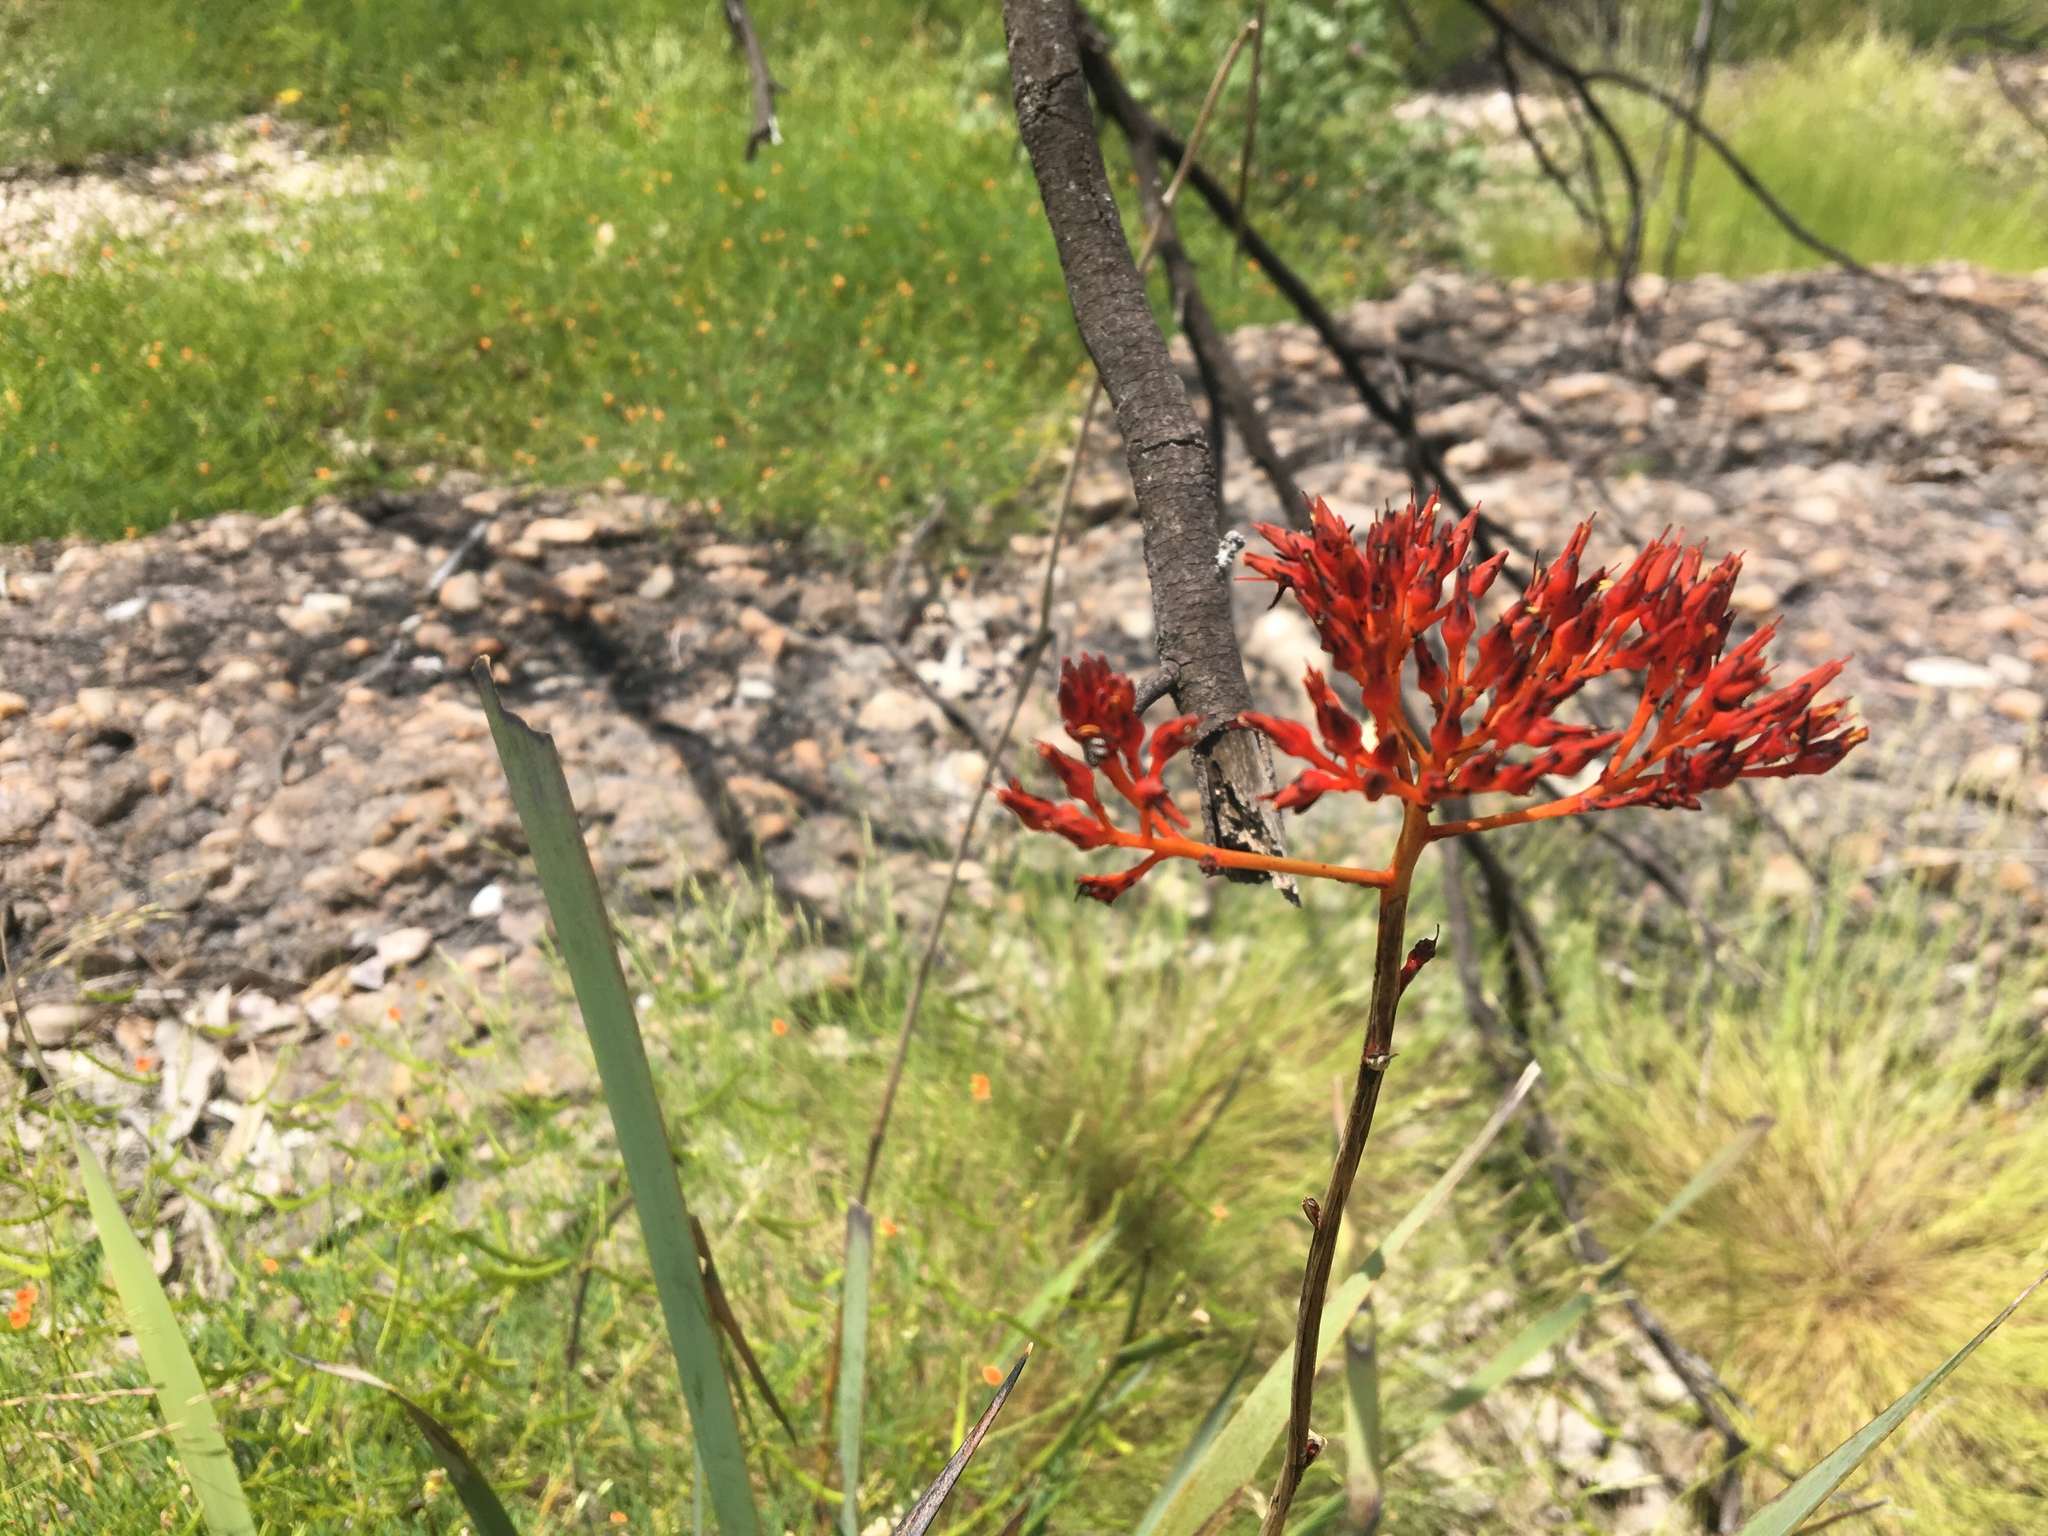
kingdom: Plantae
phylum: Tracheophyta
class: Liliopsida
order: Commelinales
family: Haemodoraceae
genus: Haemodorum
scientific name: Haemodorum coccineum
